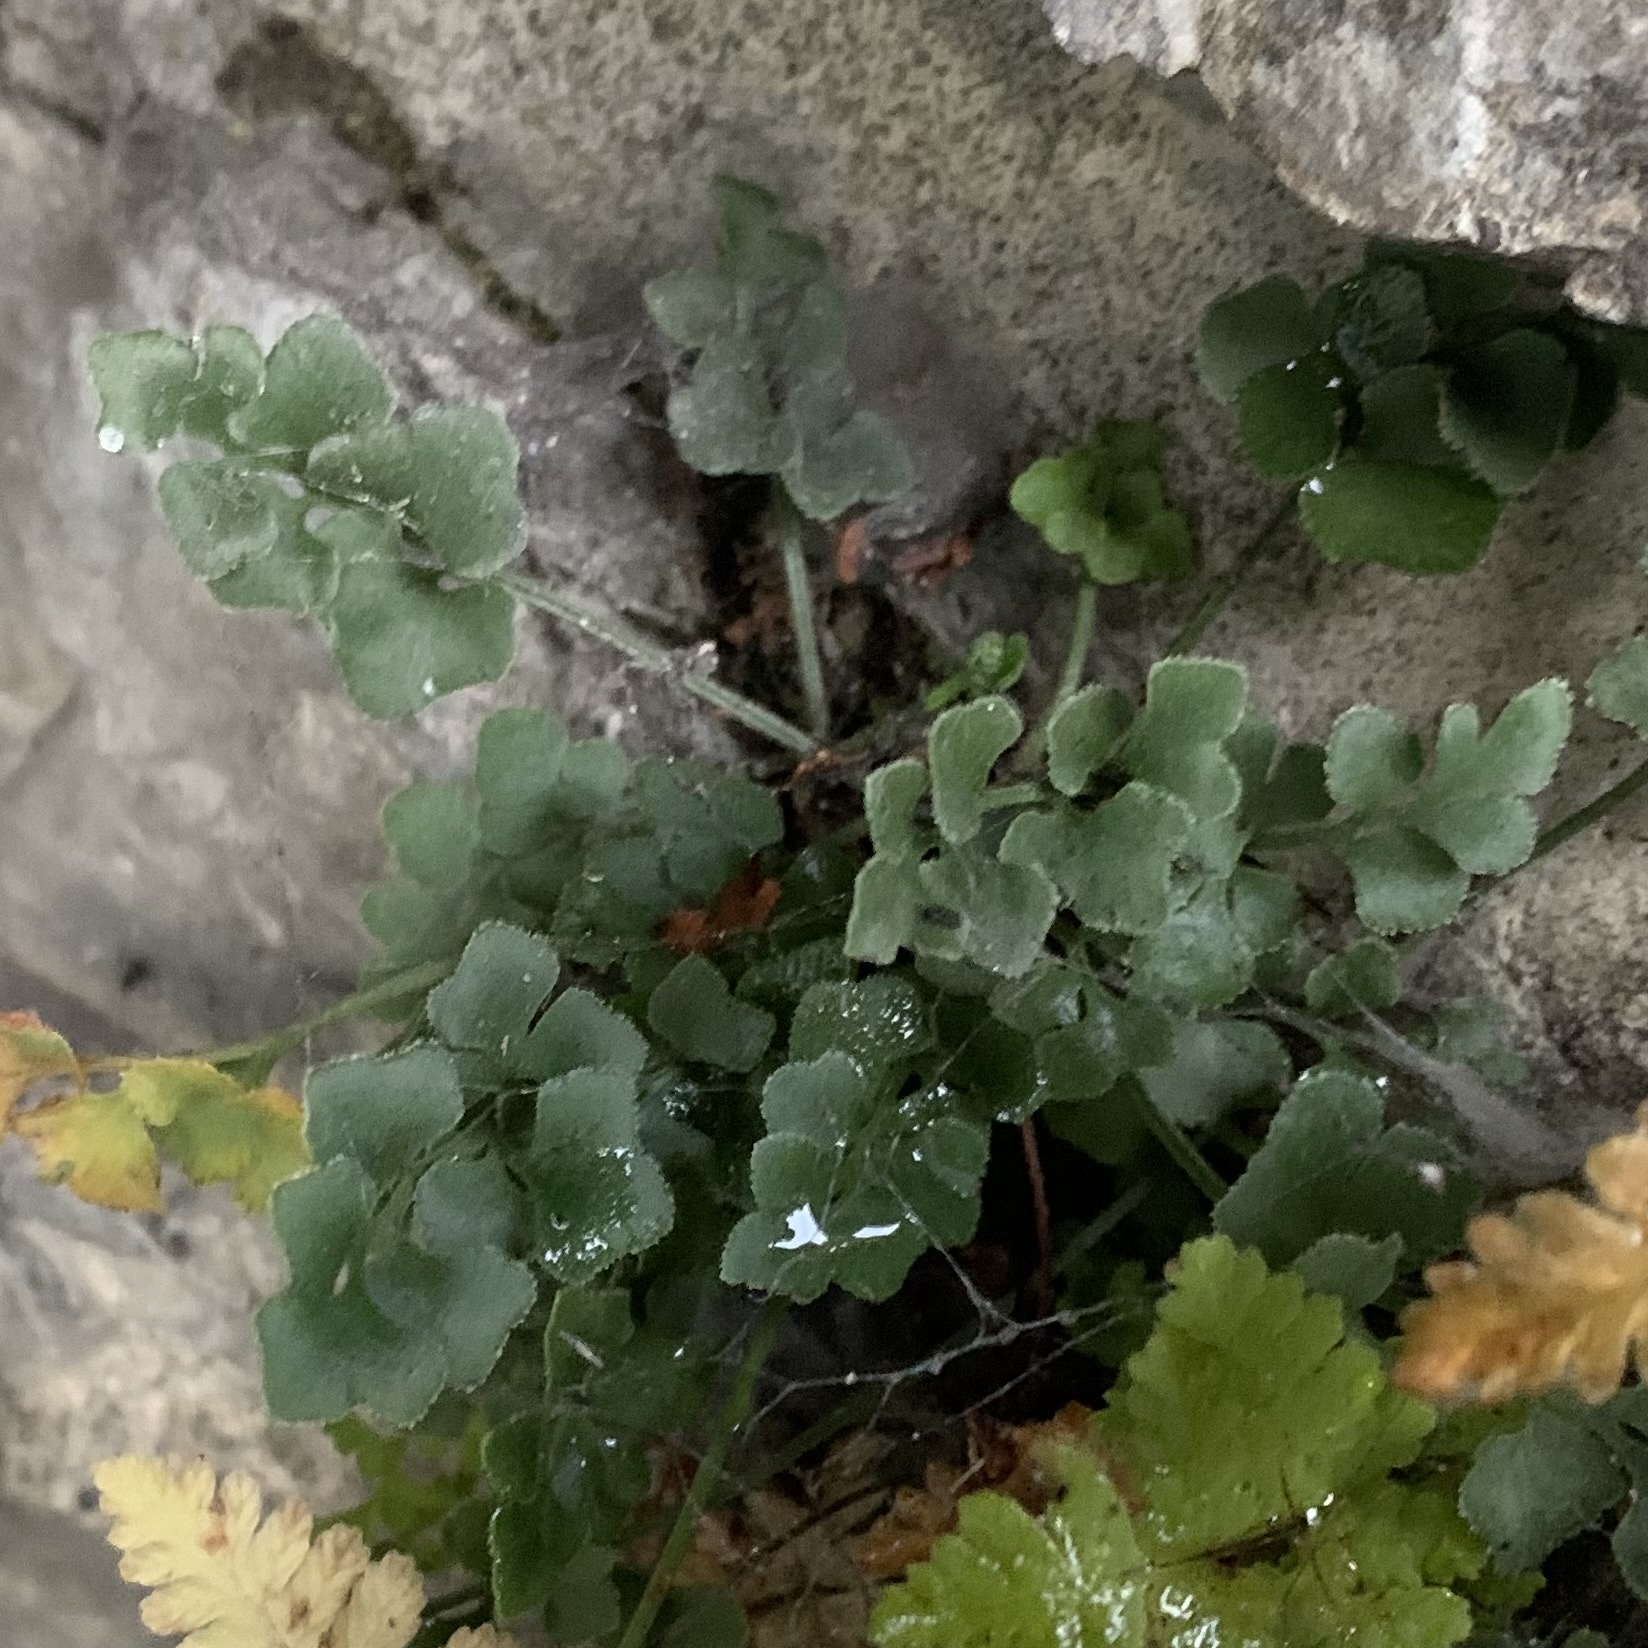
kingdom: Plantae
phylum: Tracheophyta
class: Polypodiopsida
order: Polypodiales
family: Aspleniaceae
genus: Asplenium
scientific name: Asplenium ruta-muraria
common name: Wall-rue
